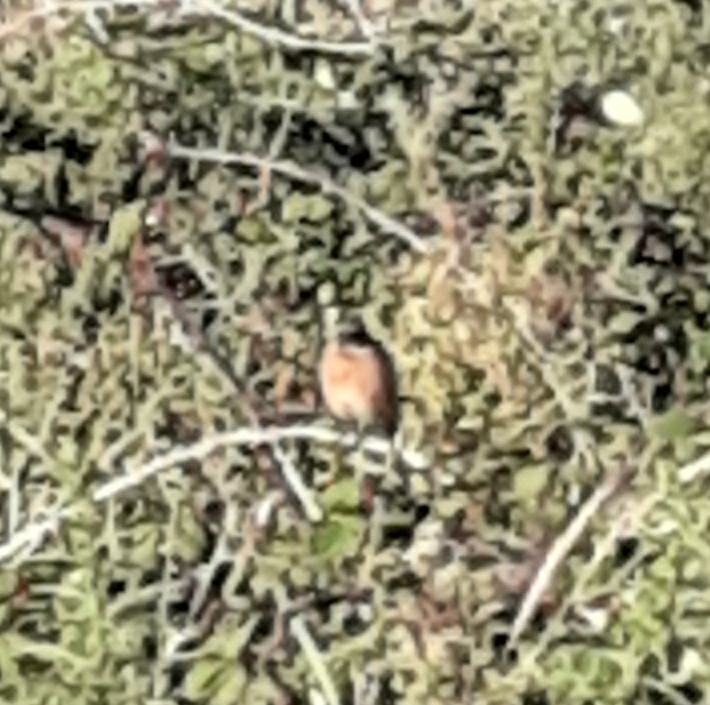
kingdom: Animalia
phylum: Chordata
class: Aves
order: Passeriformes
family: Muscicapidae
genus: Saxicola
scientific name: Saxicola rubicola
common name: European stonechat
